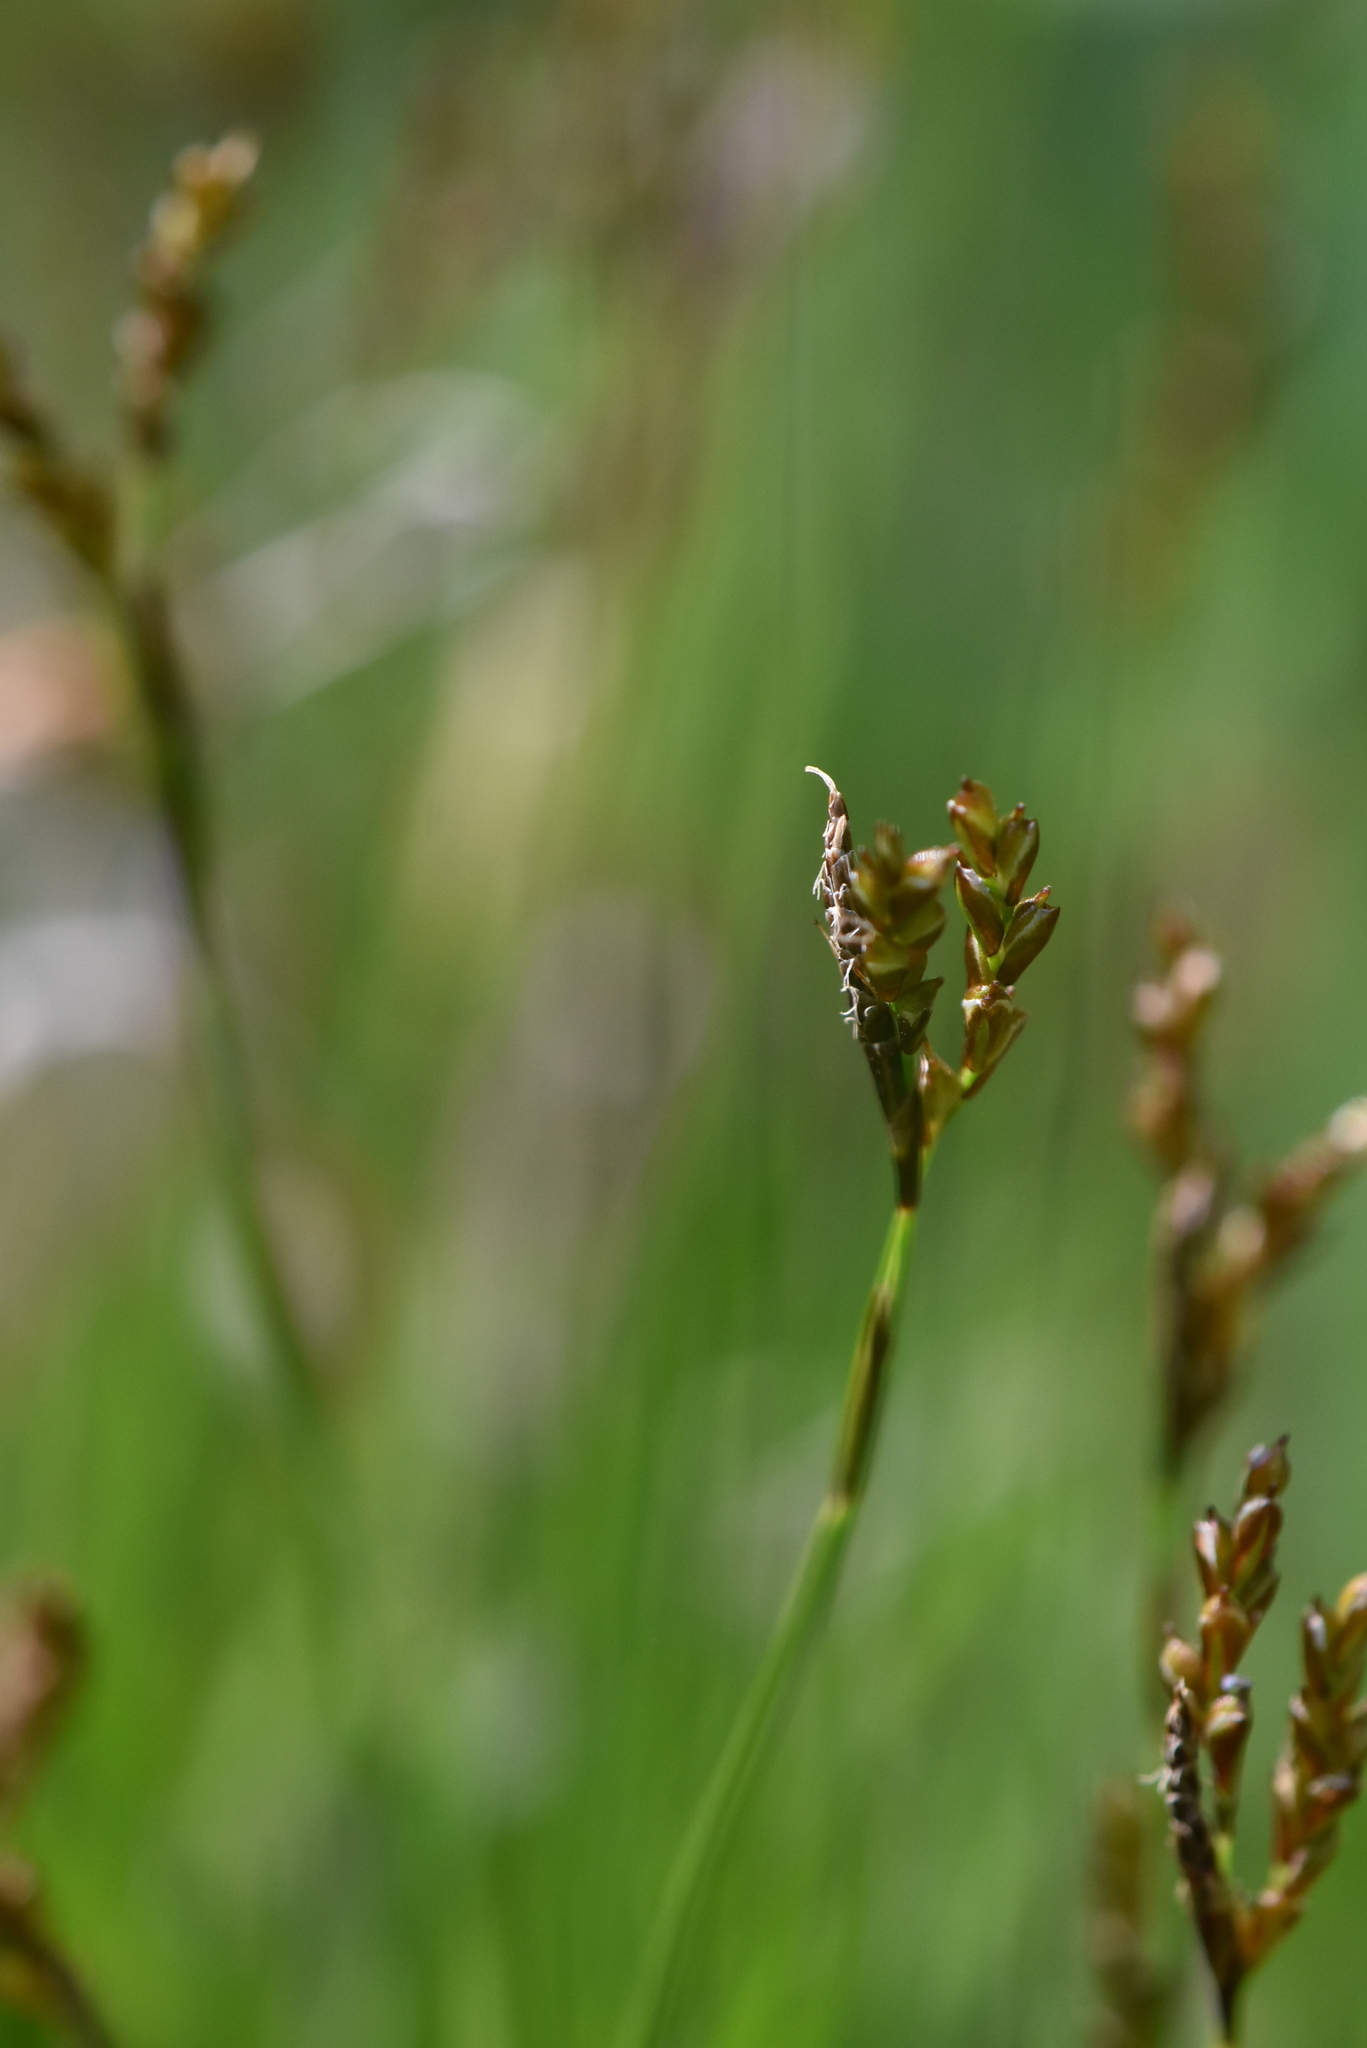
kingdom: Plantae
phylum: Tracheophyta
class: Liliopsida
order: Poales
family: Cyperaceae
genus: Carex
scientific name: Carex digitata
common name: Fingered sedge
